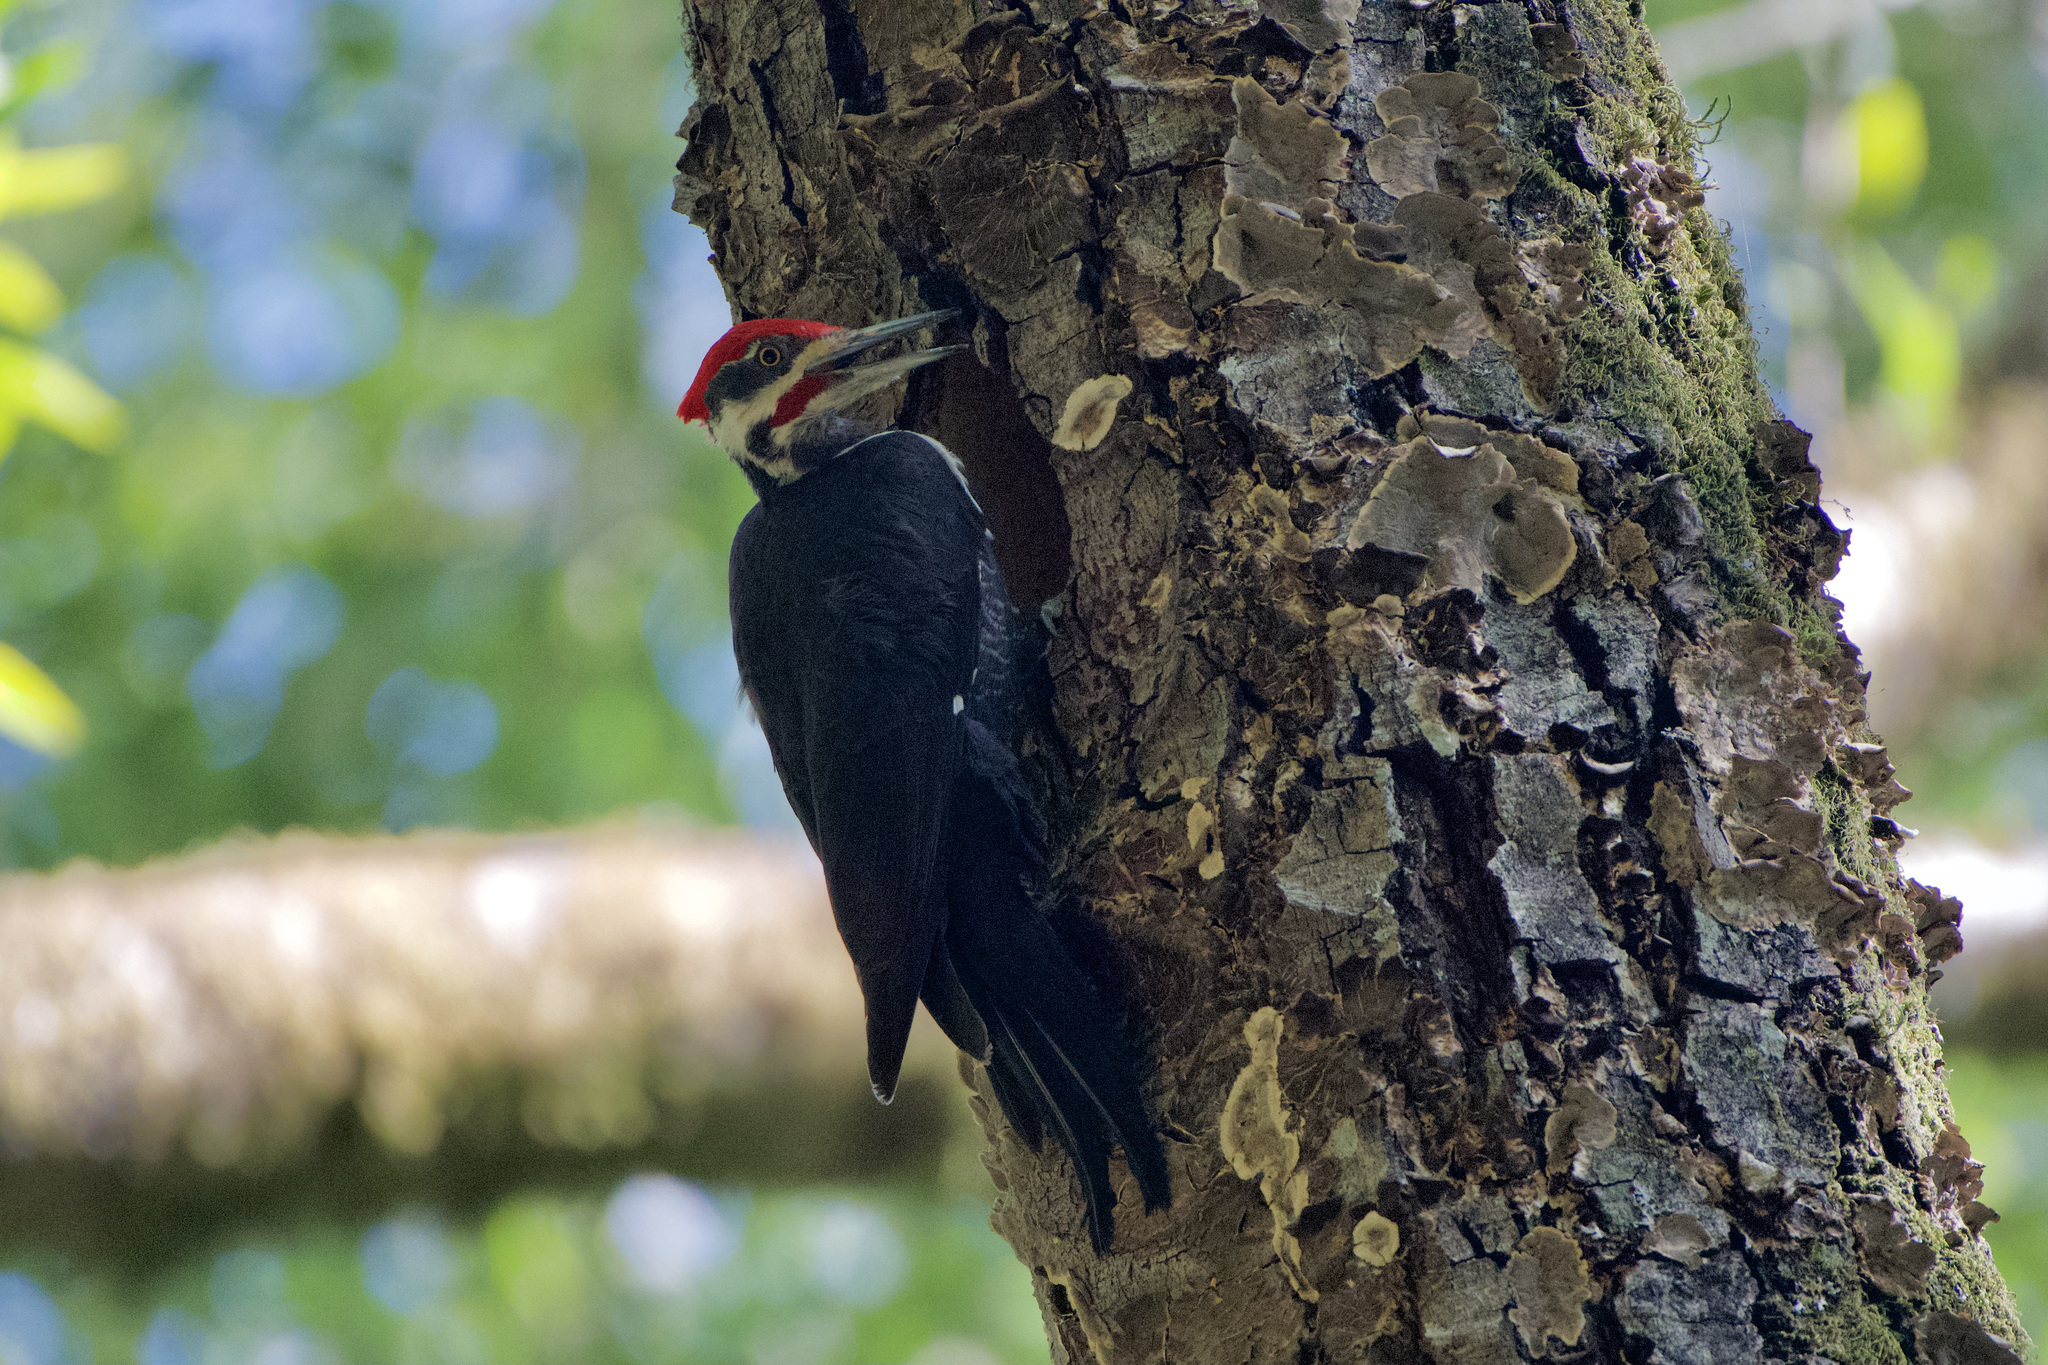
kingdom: Animalia
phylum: Chordata
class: Aves
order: Piciformes
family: Picidae
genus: Dryocopus
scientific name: Dryocopus pileatus
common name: Pileated woodpecker
